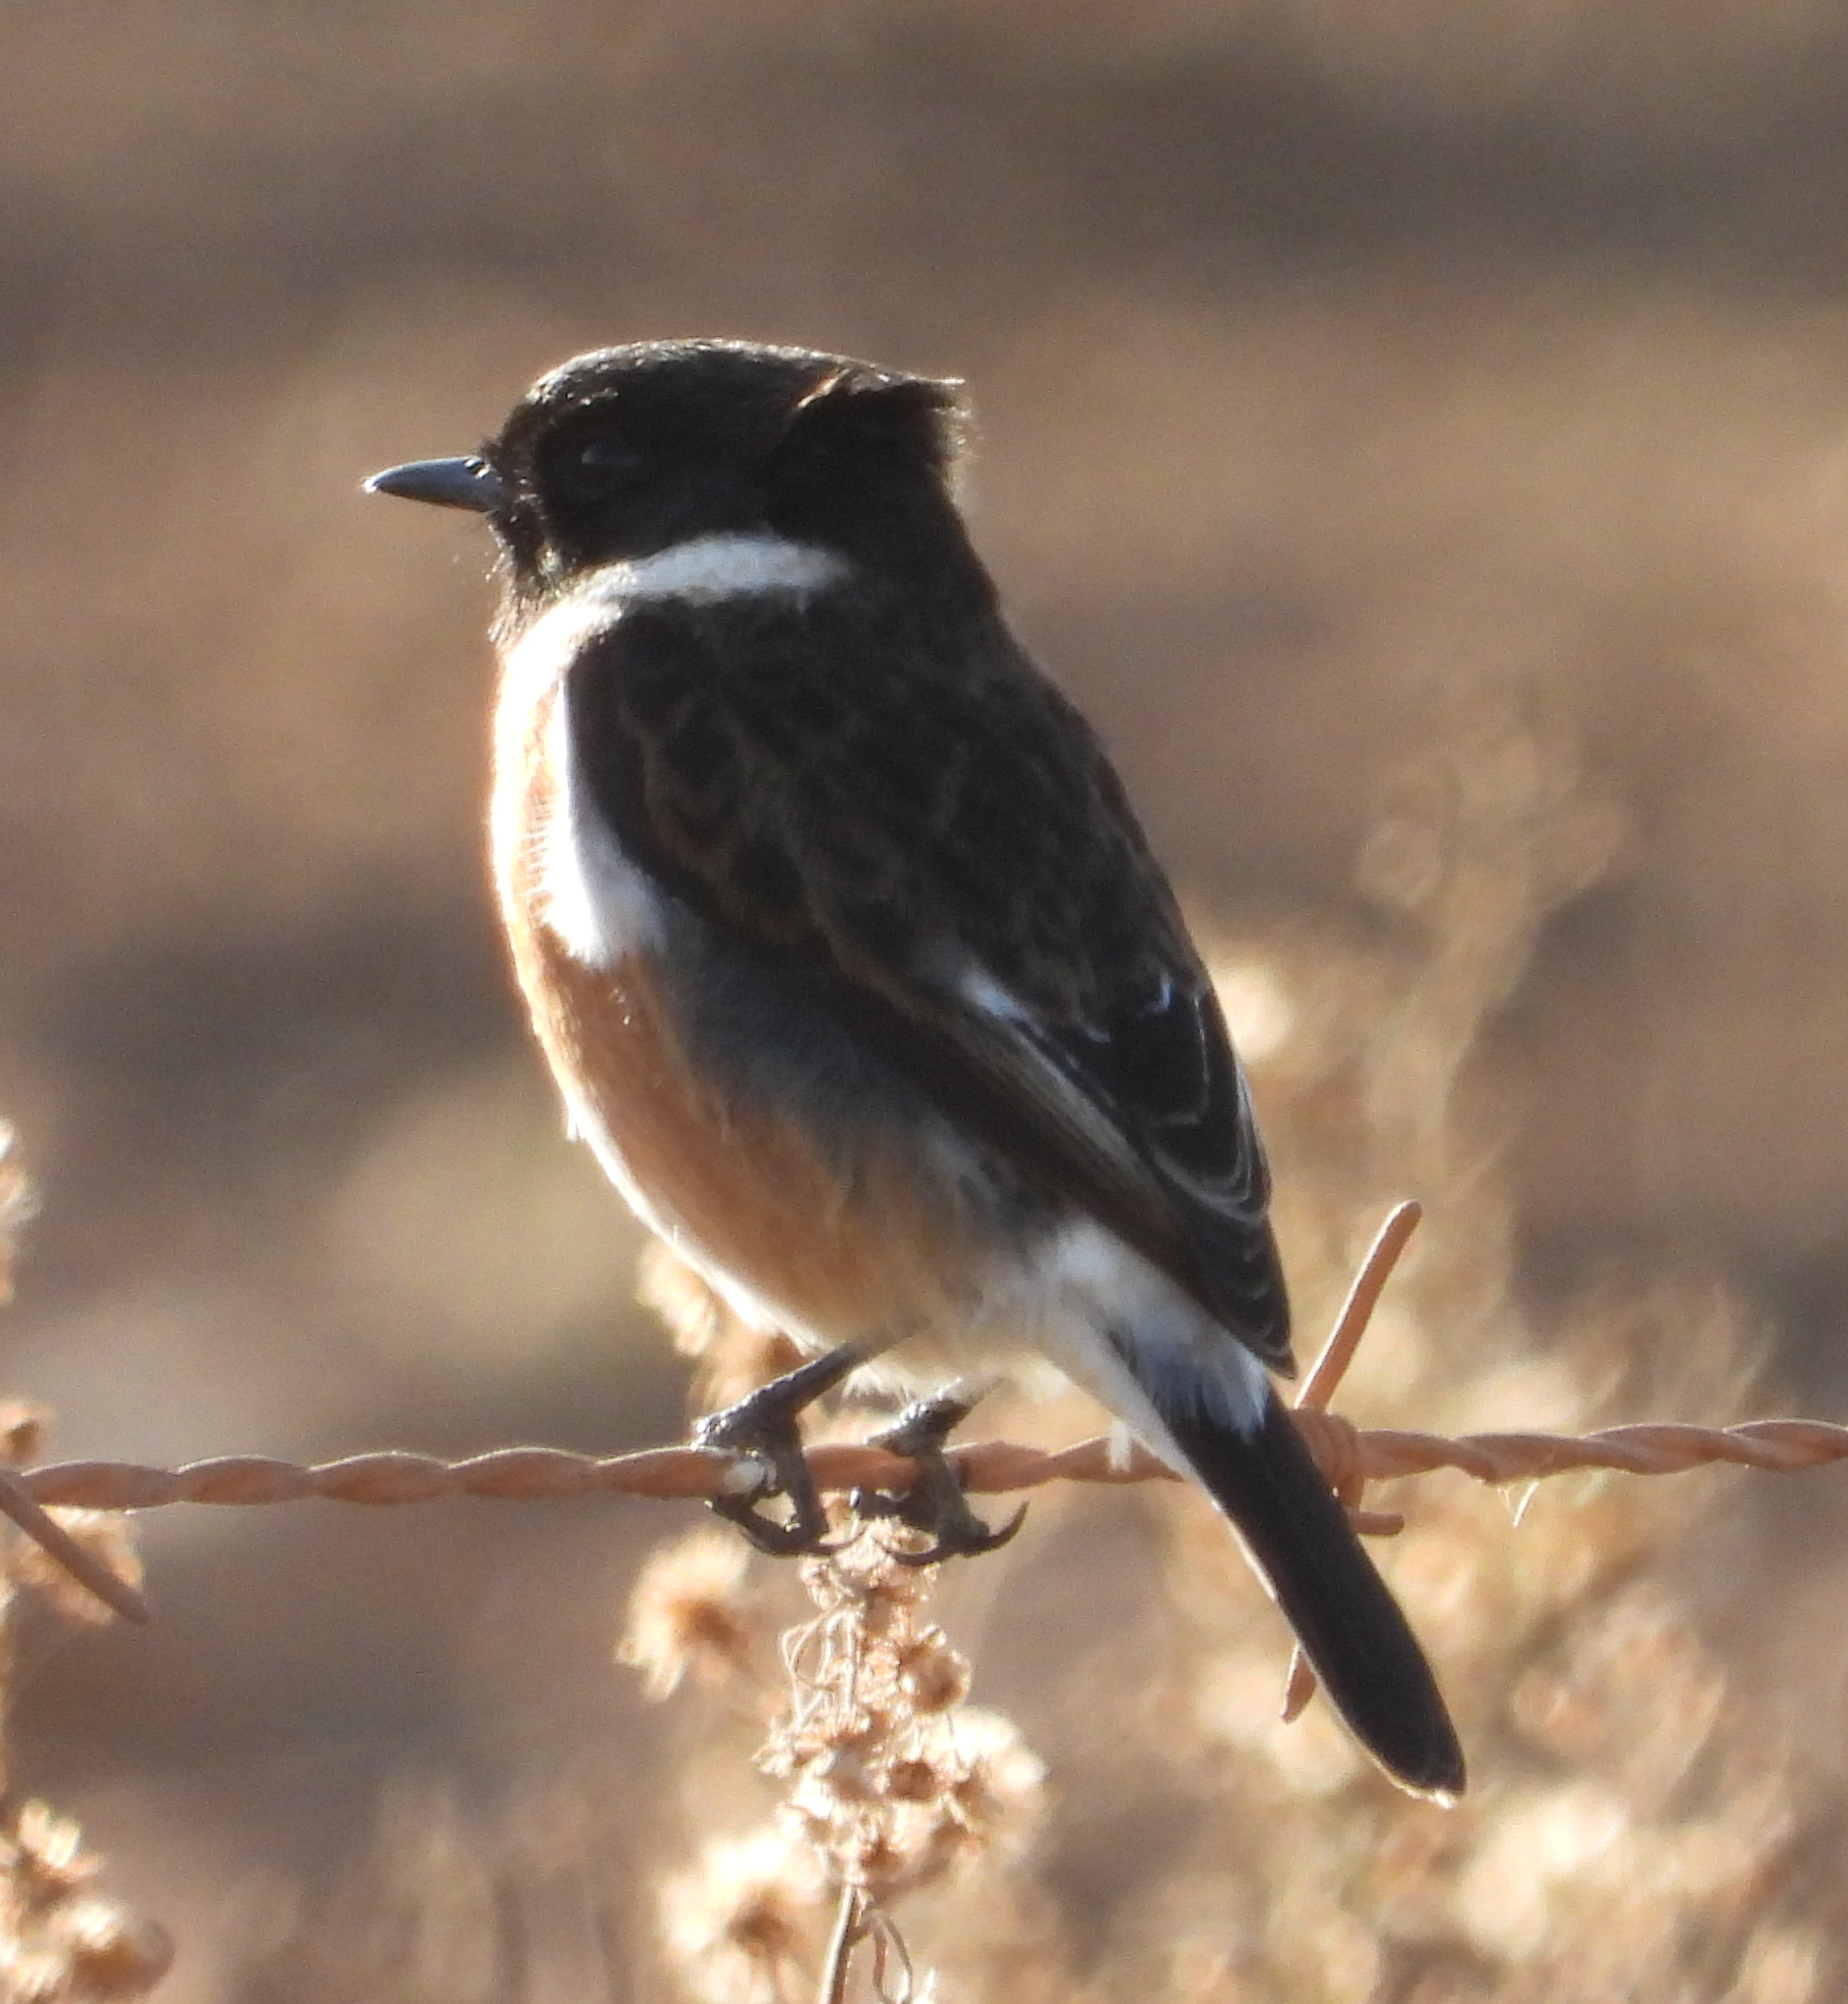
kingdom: Animalia
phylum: Chordata
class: Aves
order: Passeriformes
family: Muscicapidae
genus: Saxicola
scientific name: Saxicola torquatus
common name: African stonechat
